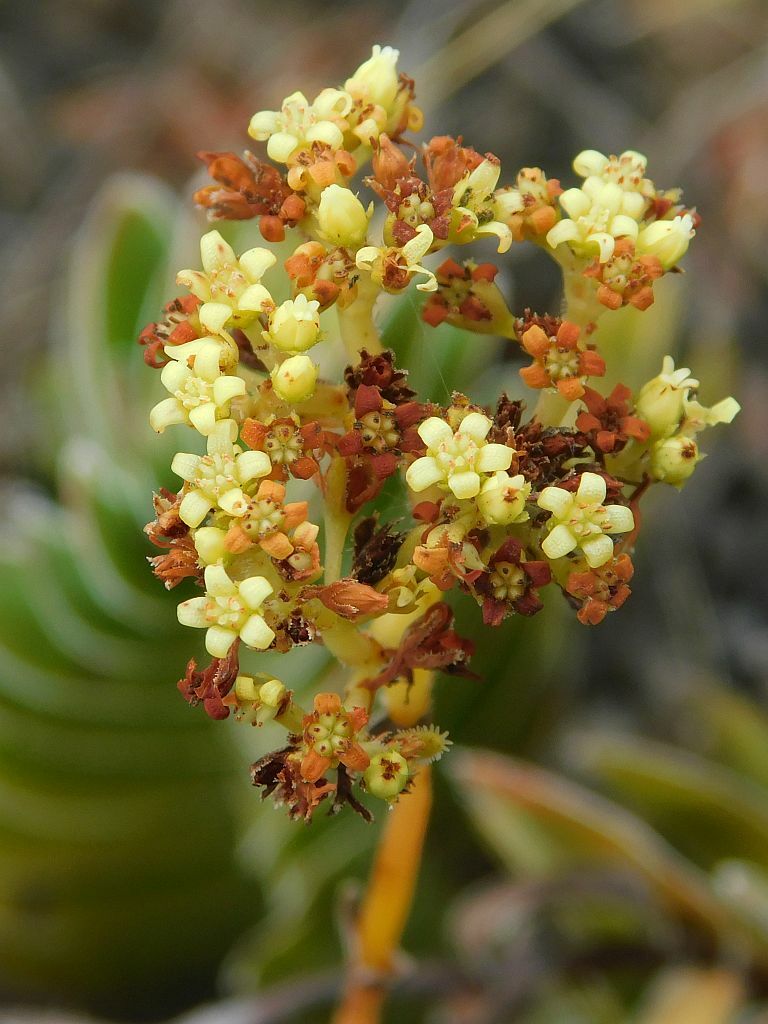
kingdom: Plantae
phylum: Tracheophyta
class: Magnoliopsida
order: Saxifragales
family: Crassulaceae
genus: Crassula
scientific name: Crassula ciliata
